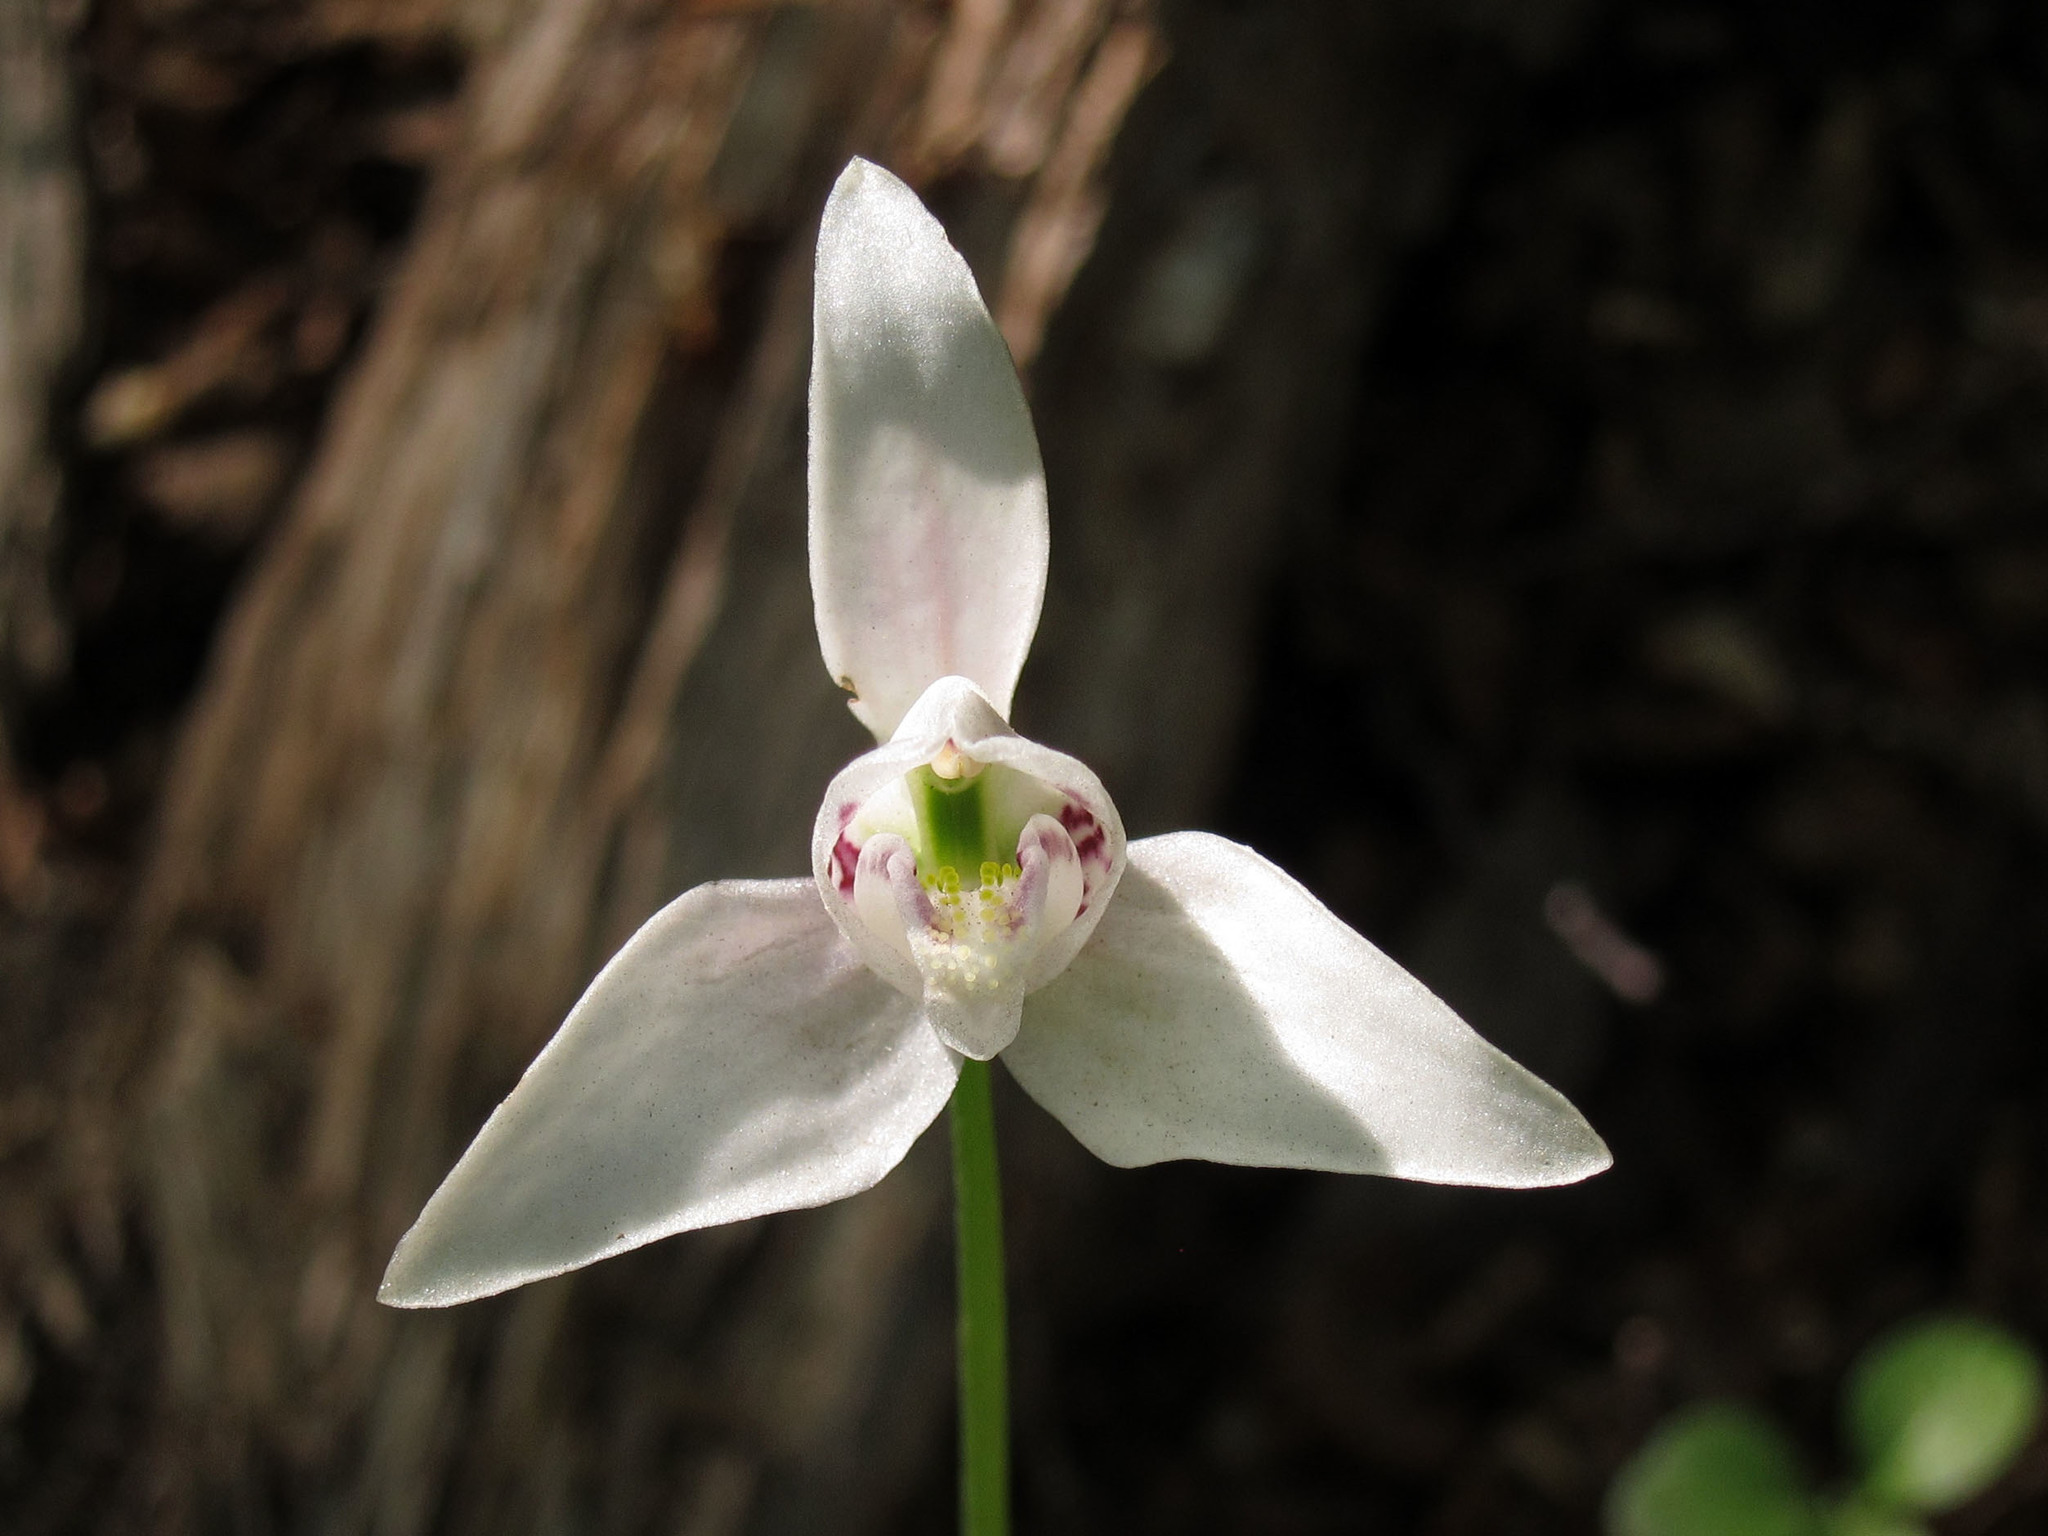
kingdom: Plantae
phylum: Tracheophyta
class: Liliopsida
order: Asparagales
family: Orchidaceae
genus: Codonorchis
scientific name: Codonorchis lessonii
